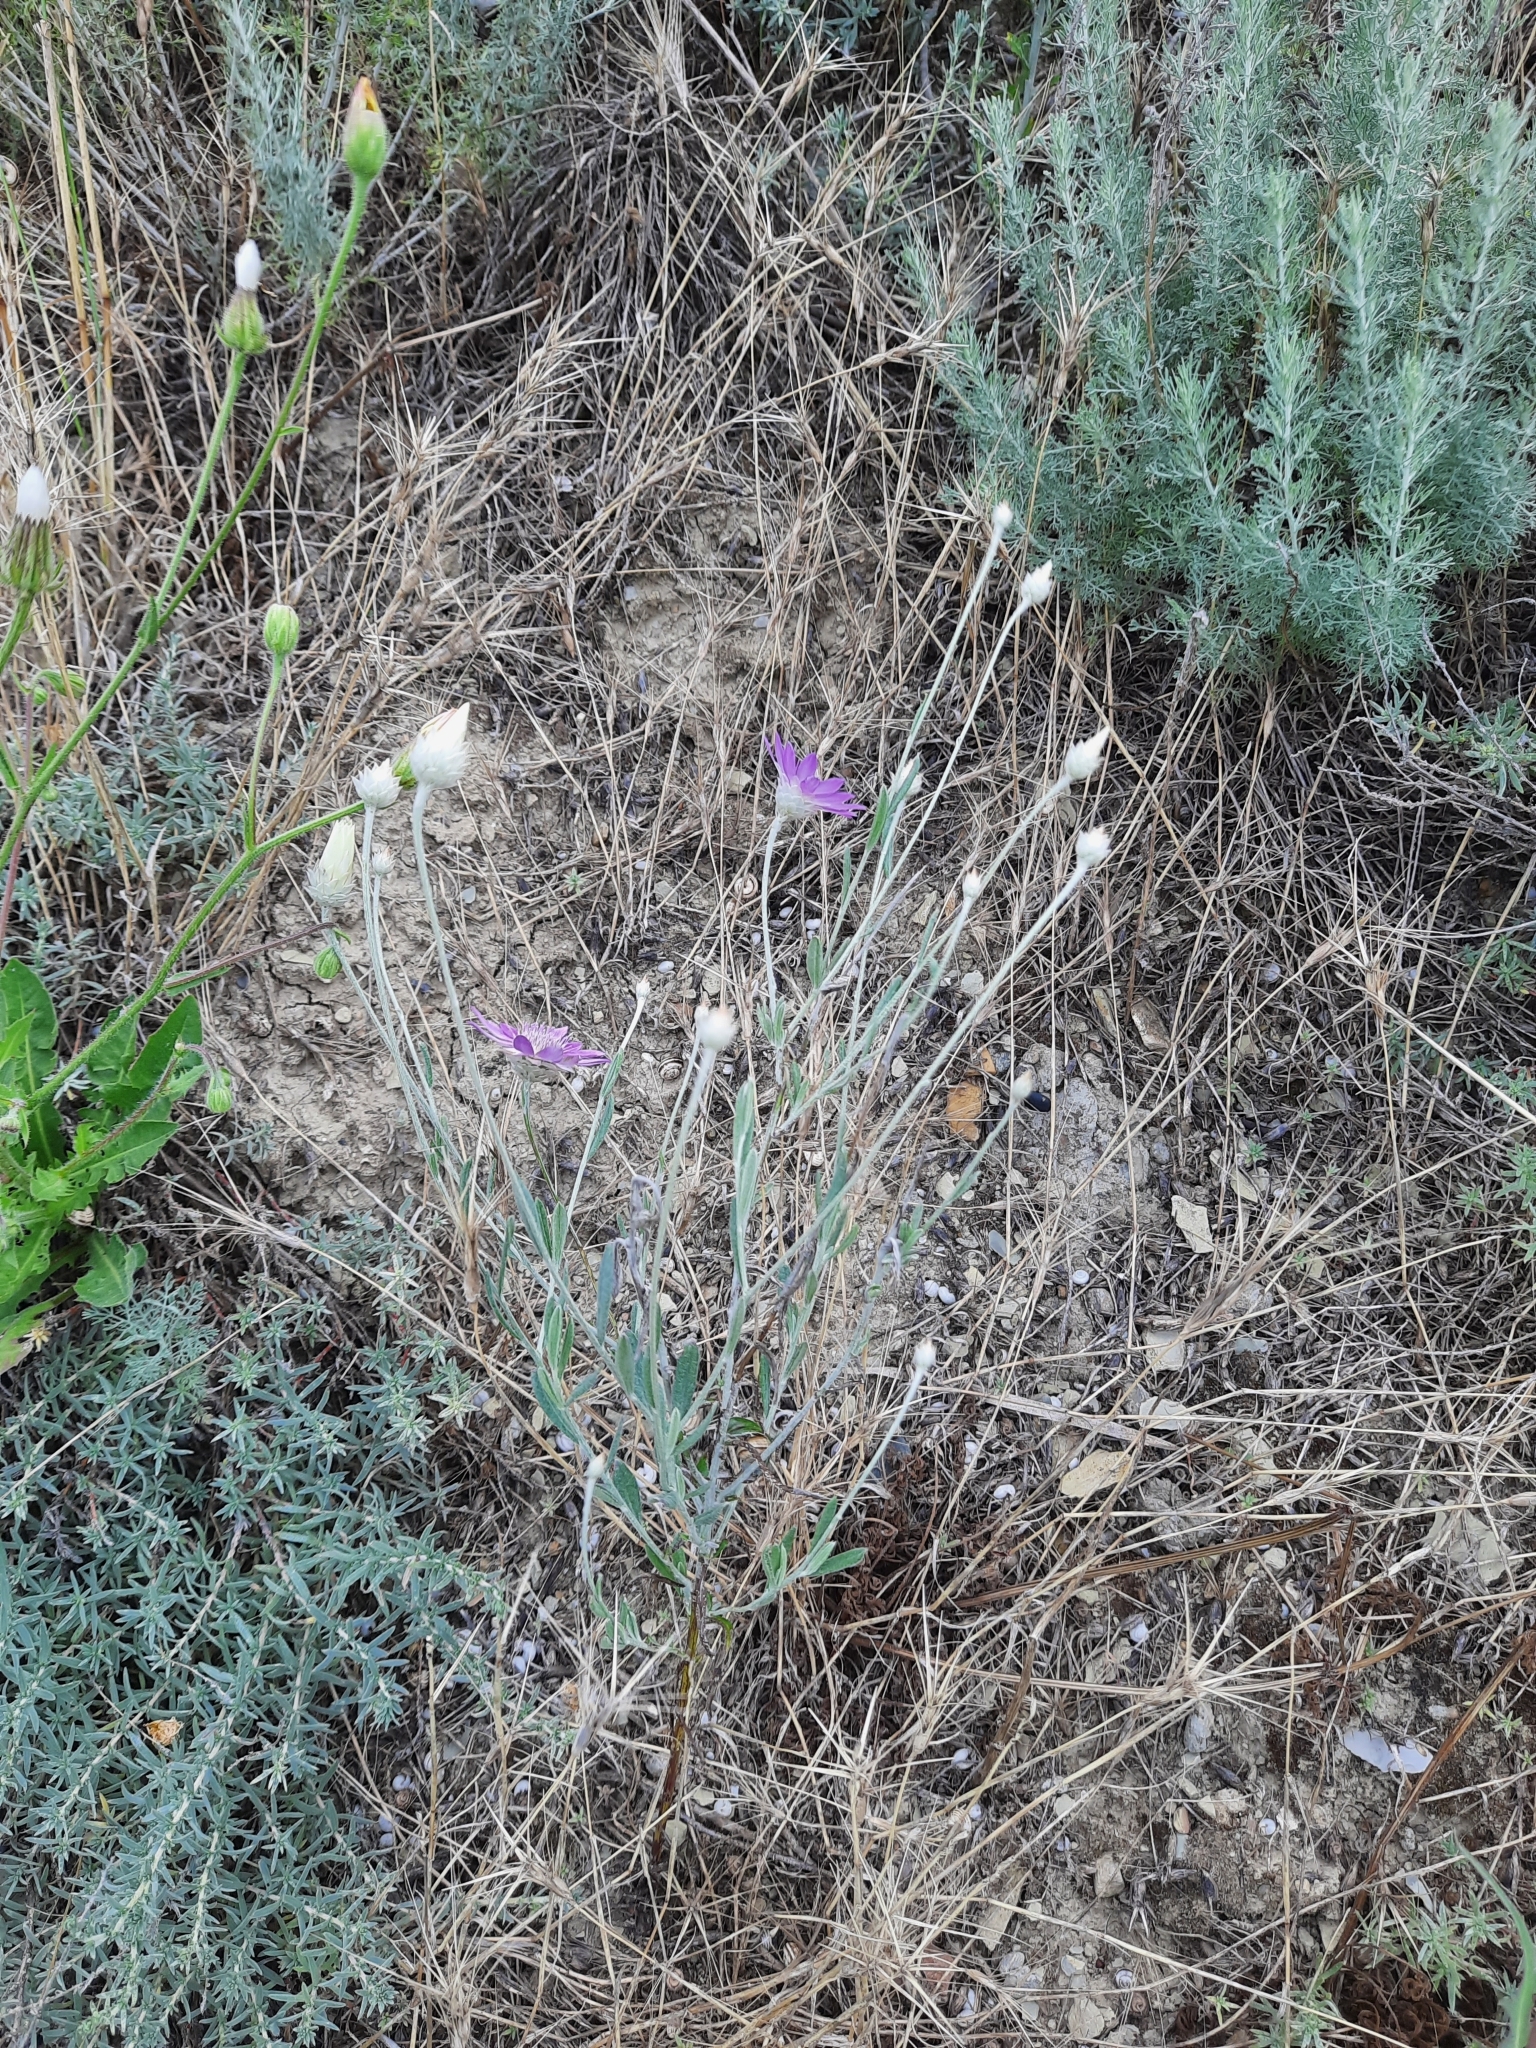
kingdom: Plantae
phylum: Tracheophyta
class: Magnoliopsida
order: Asterales
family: Asteraceae
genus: Xeranthemum
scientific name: Xeranthemum annuum
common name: Immortelle
